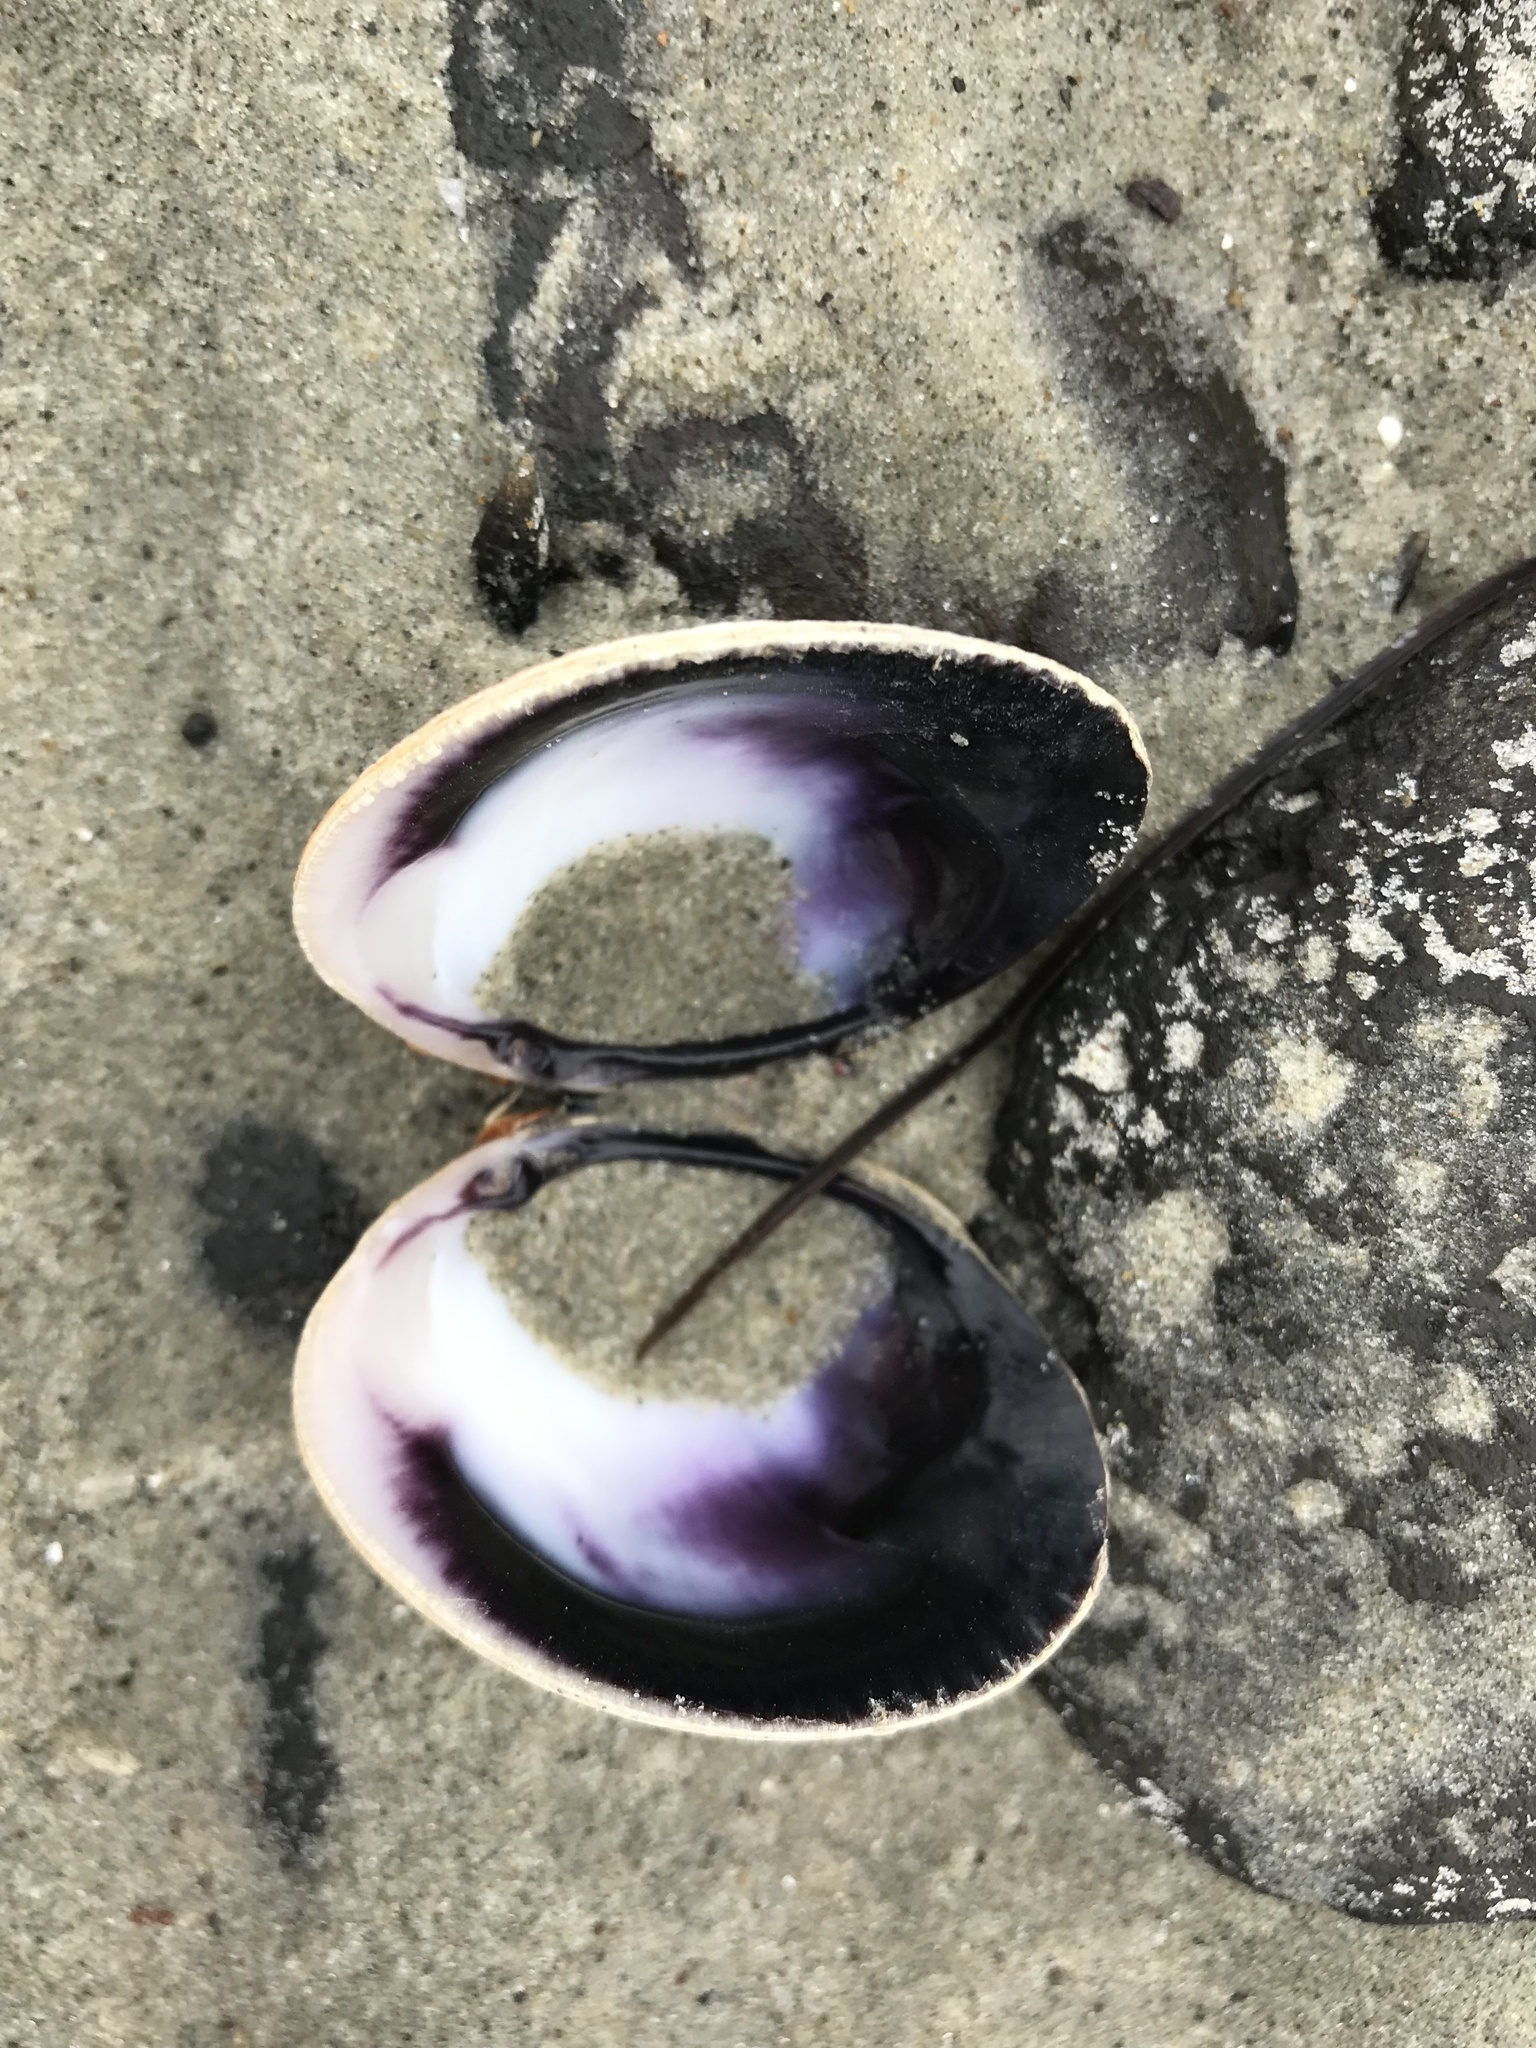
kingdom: Animalia
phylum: Mollusca
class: Bivalvia
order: Venerida
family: Veneridae
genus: Austrovenus
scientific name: Austrovenus stutchburyi
